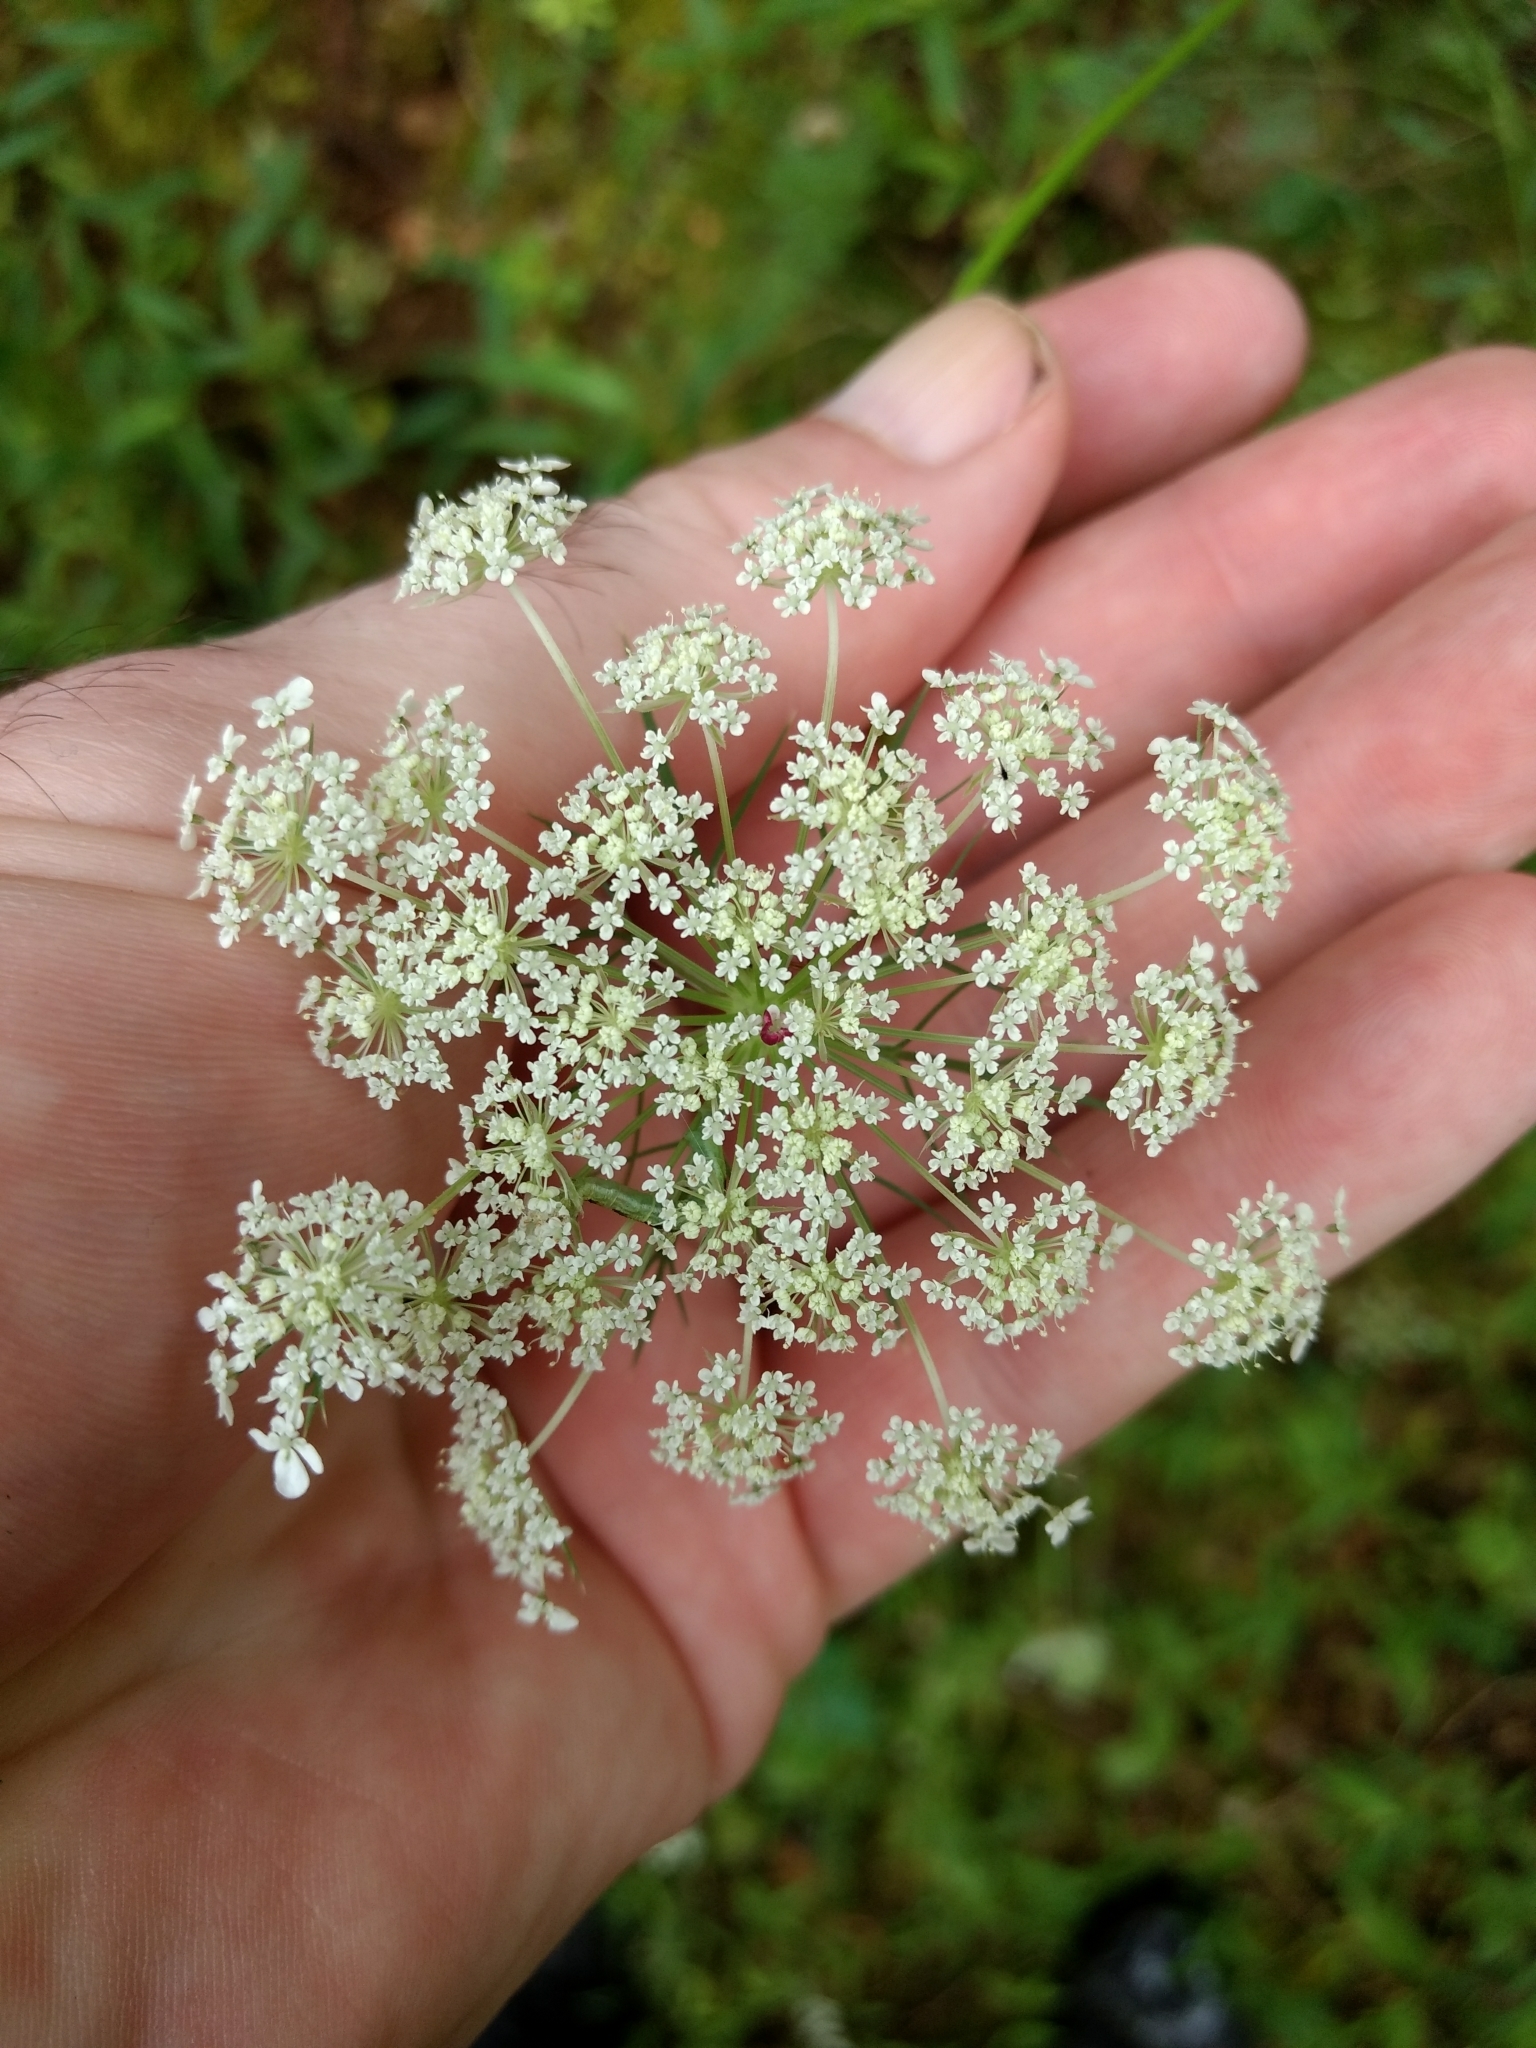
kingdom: Plantae
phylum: Tracheophyta
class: Magnoliopsida
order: Apiales
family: Apiaceae
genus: Daucus
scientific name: Daucus carota
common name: Wild carrot
